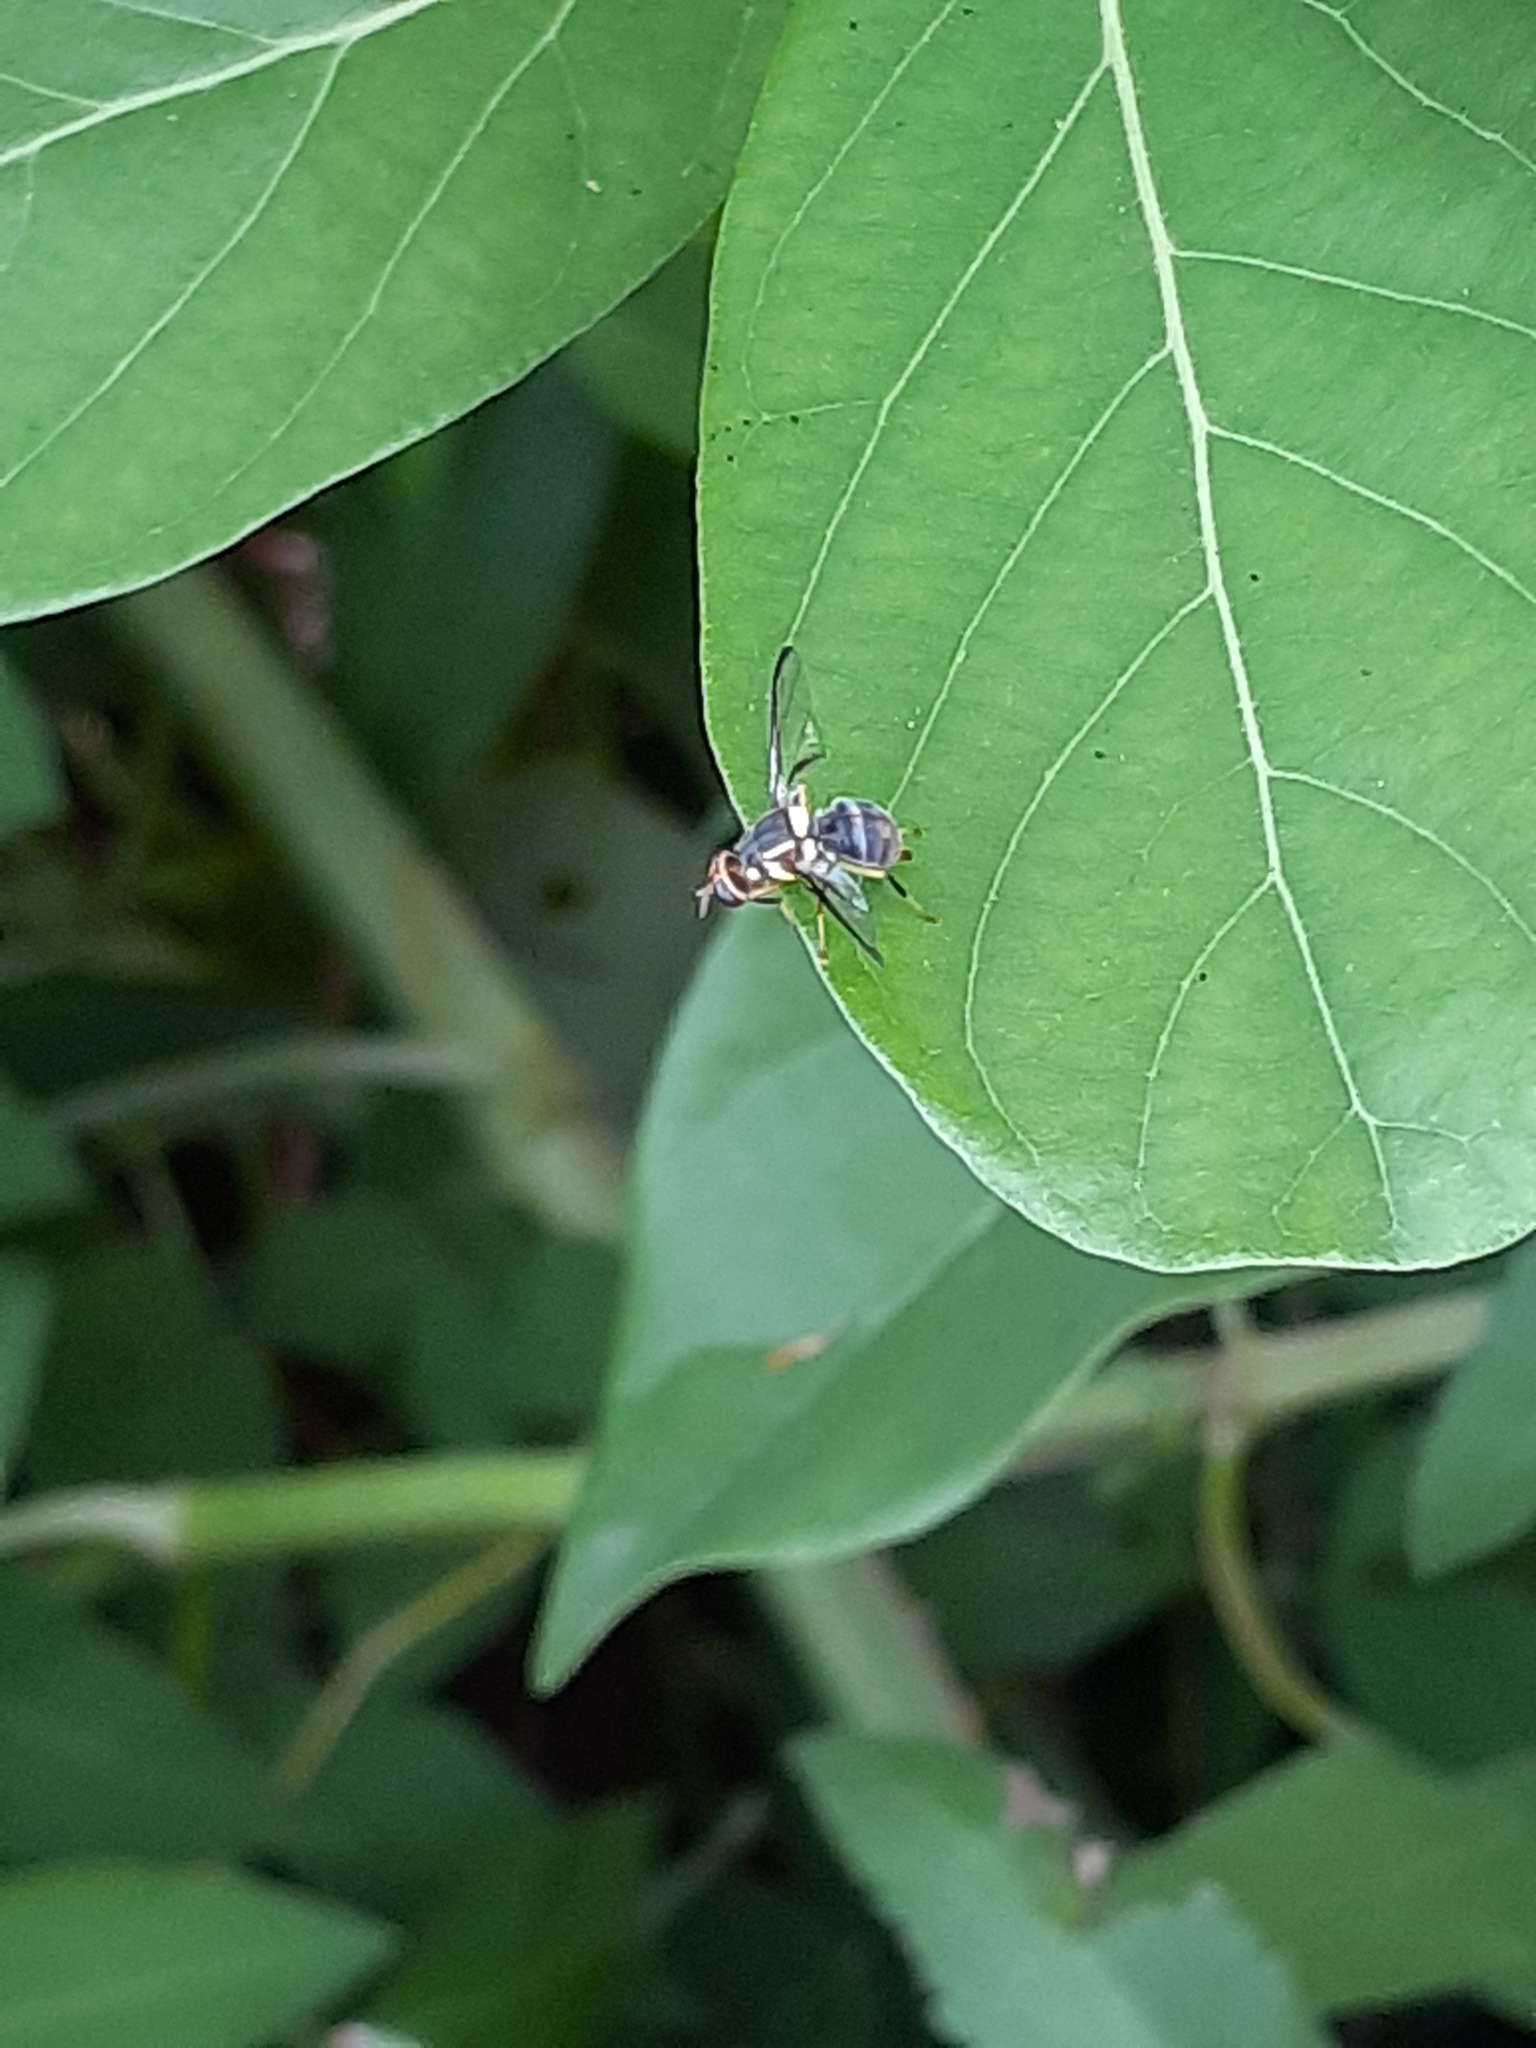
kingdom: Animalia
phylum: Arthropoda
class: Insecta
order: Diptera
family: Tephritidae
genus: Bactrocera
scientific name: Bactrocera dorsalis
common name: Oriental fruit fly
